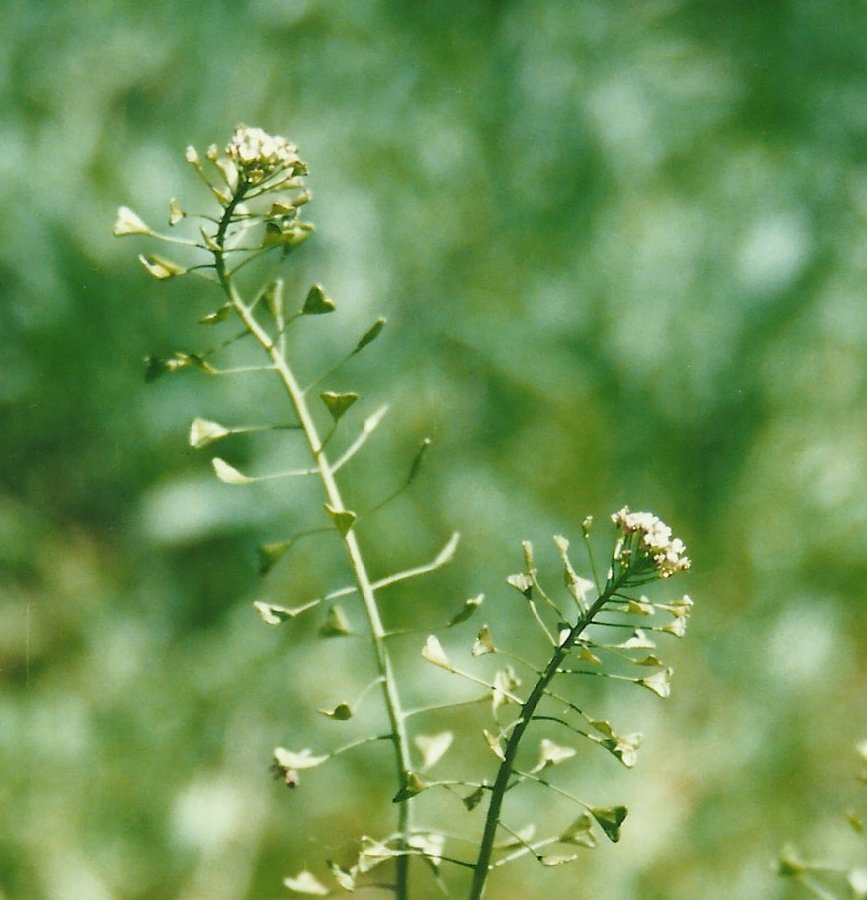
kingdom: Plantae
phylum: Tracheophyta
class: Magnoliopsida
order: Brassicales
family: Brassicaceae
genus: Capsella
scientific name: Capsella bursa-pastoris
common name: Shepherd's purse
